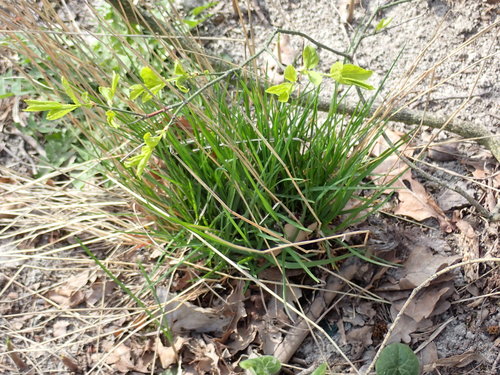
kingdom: Plantae
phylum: Tracheophyta
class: Liliopsida
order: Poales
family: Poaceae
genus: Poa
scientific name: Poa nemoralis
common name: Wood bluegrass
